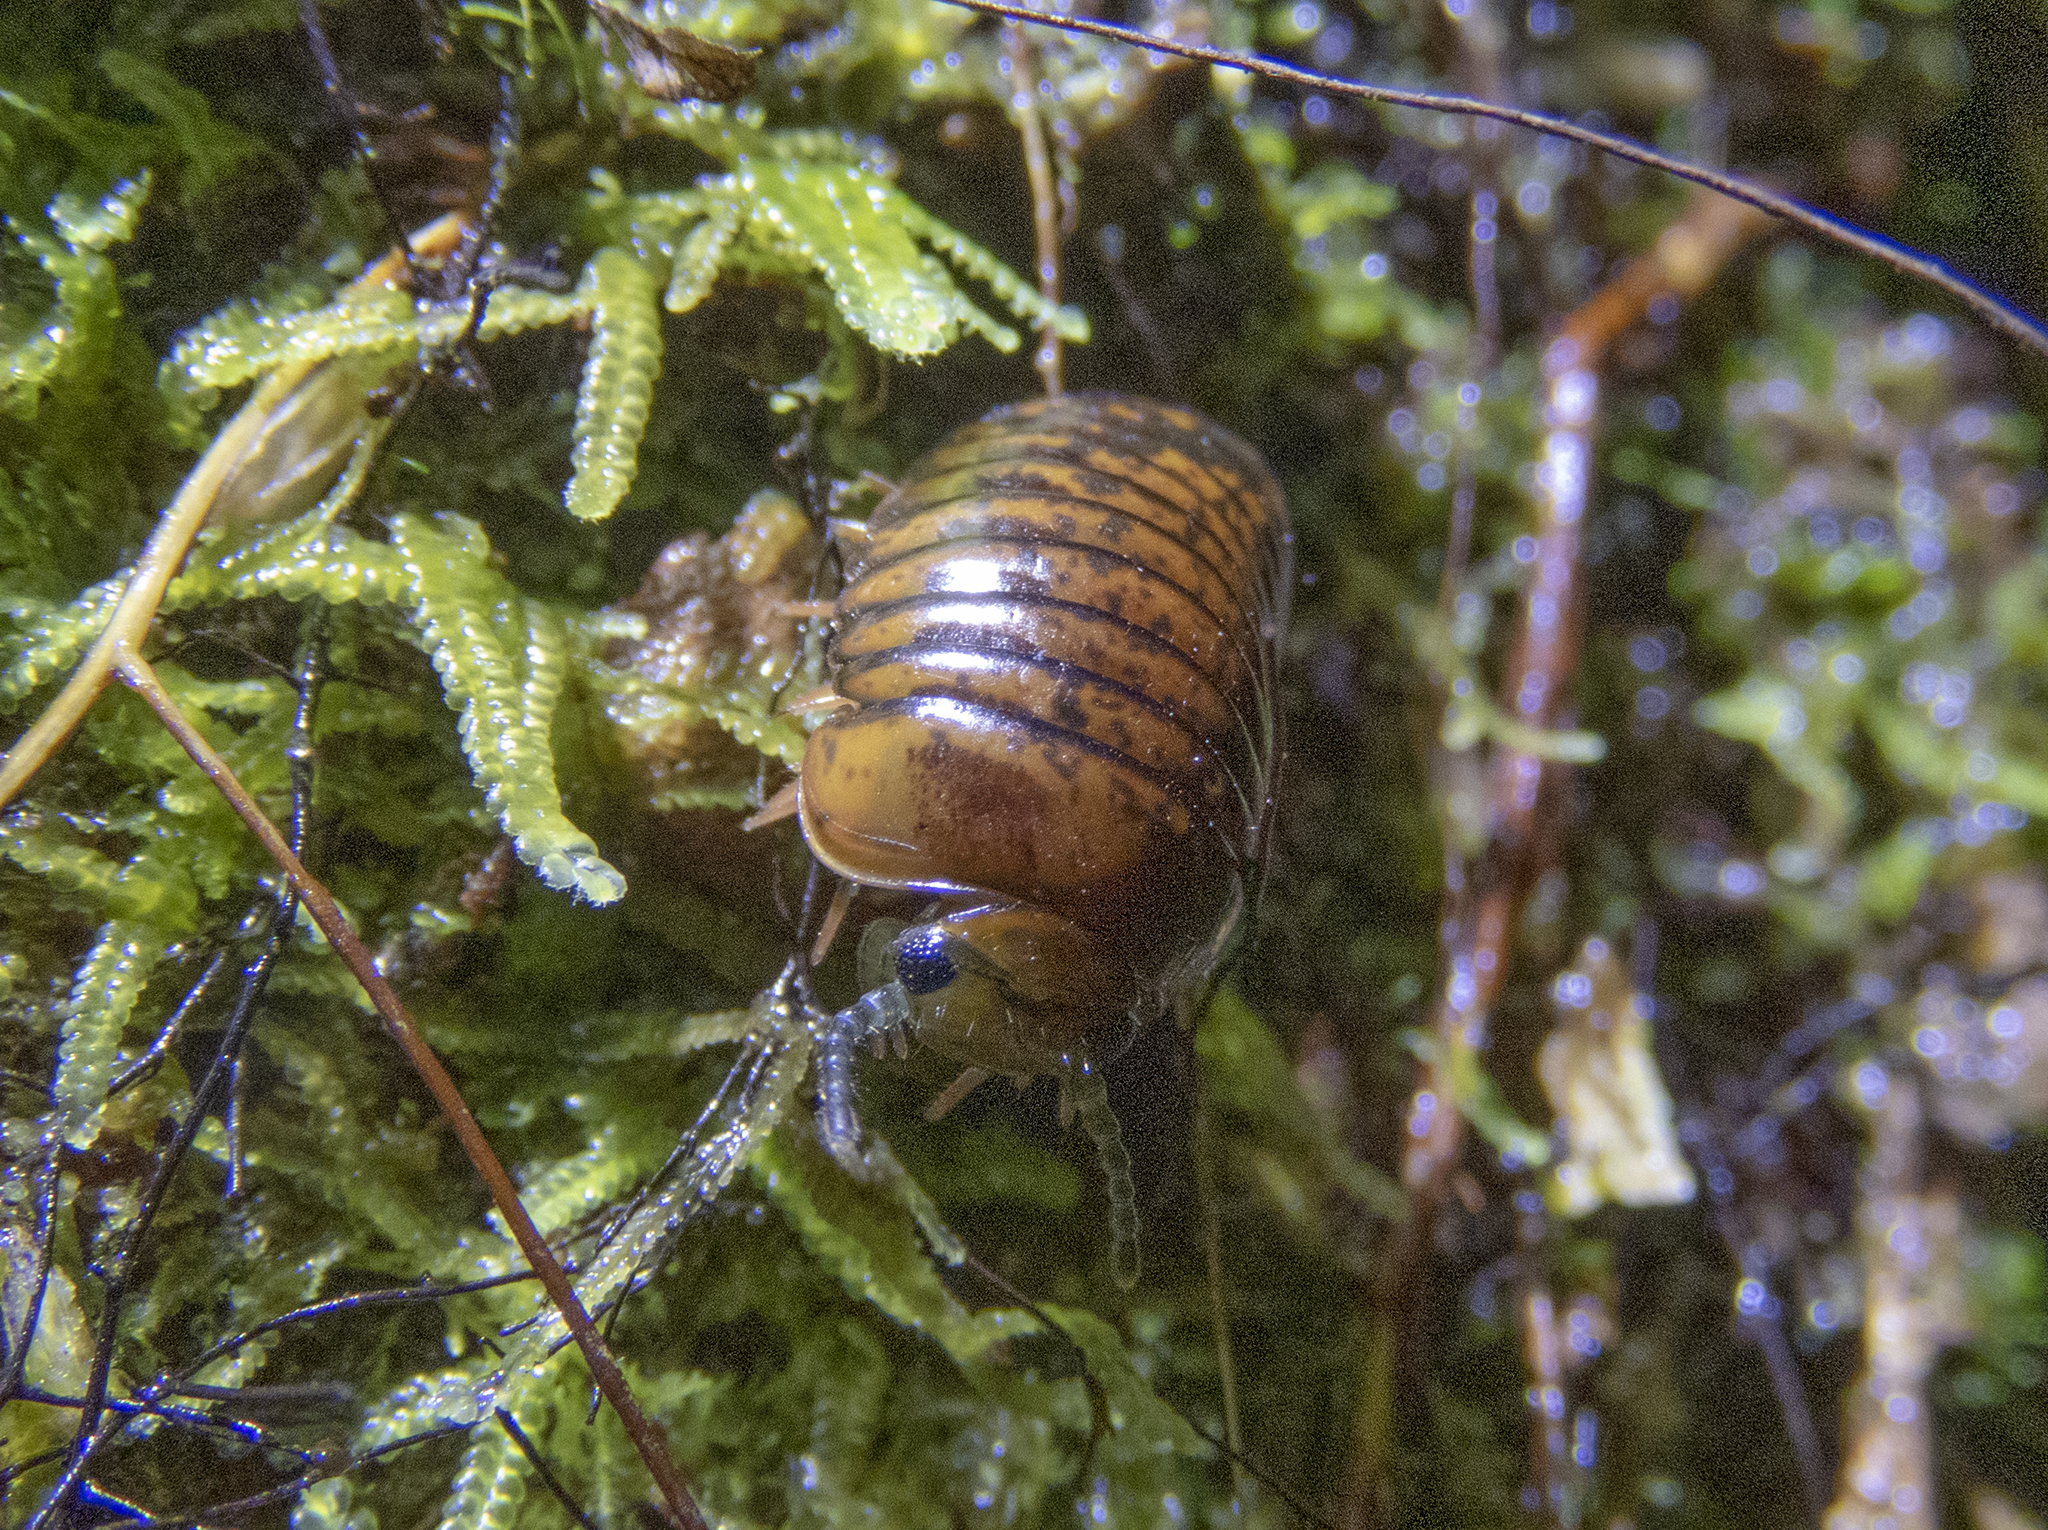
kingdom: Animalia
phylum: Arthropoda
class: Diplopoda
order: Sphaerotheriida
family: Procyliosomatidae
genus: Procyliosoma
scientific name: Procyliosoma delacyi
